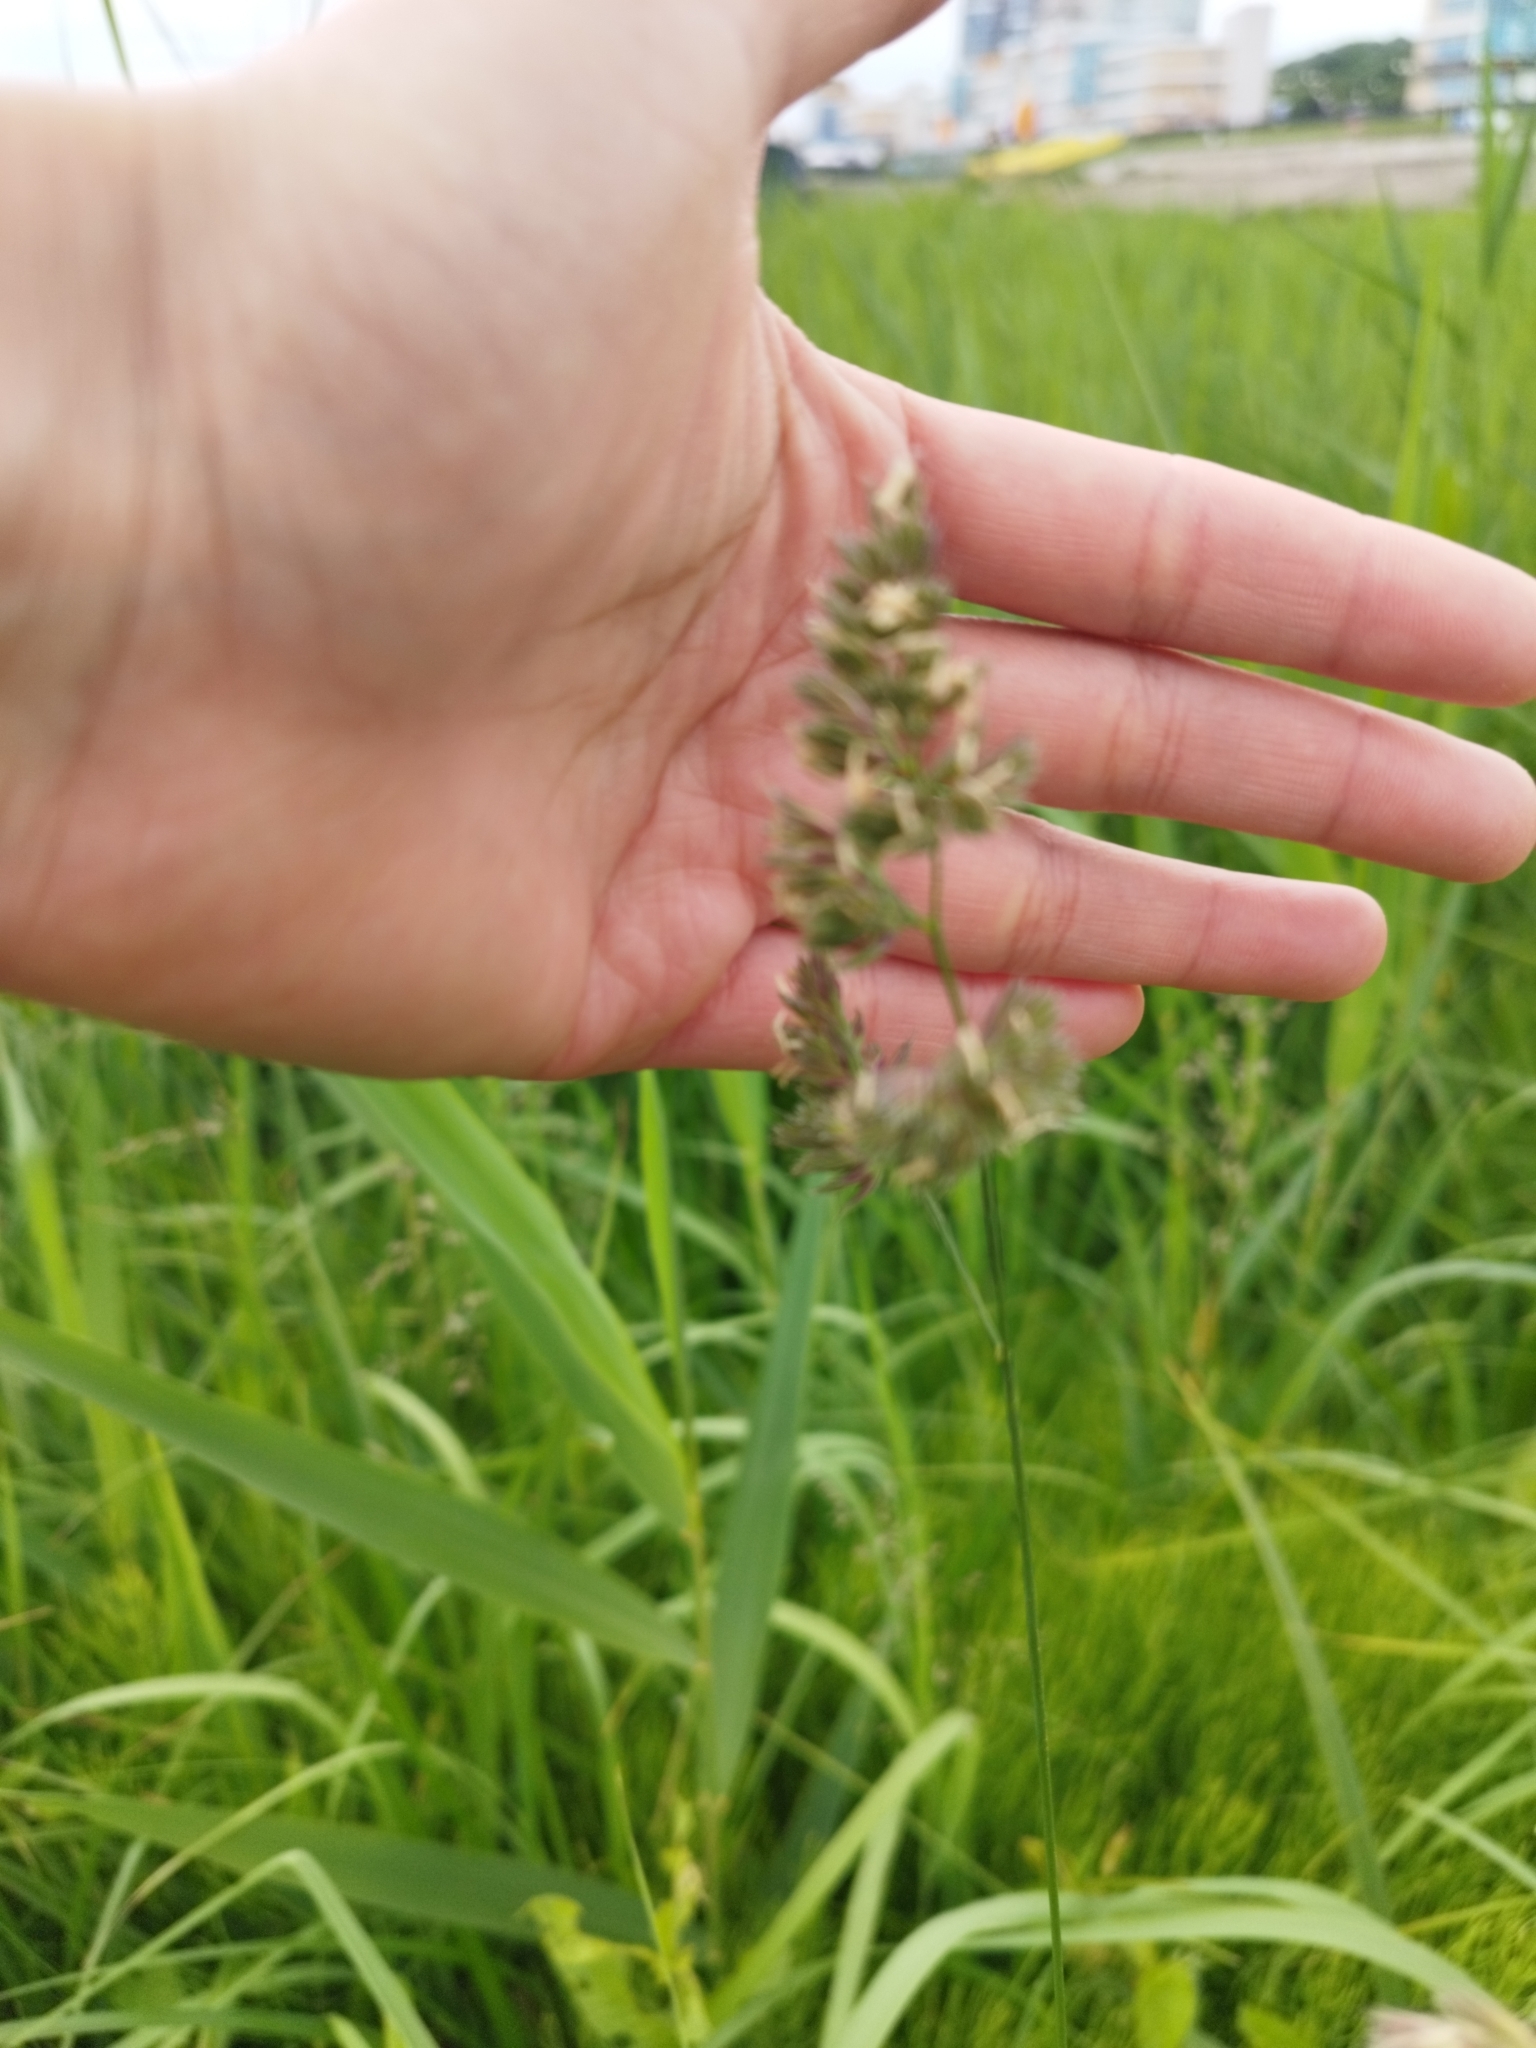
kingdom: Plantae
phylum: Tracheophyta
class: Liliopsida
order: Poales
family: Poaceae
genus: Dactylis
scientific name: Dactylis glomerata
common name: Orchardgrass
